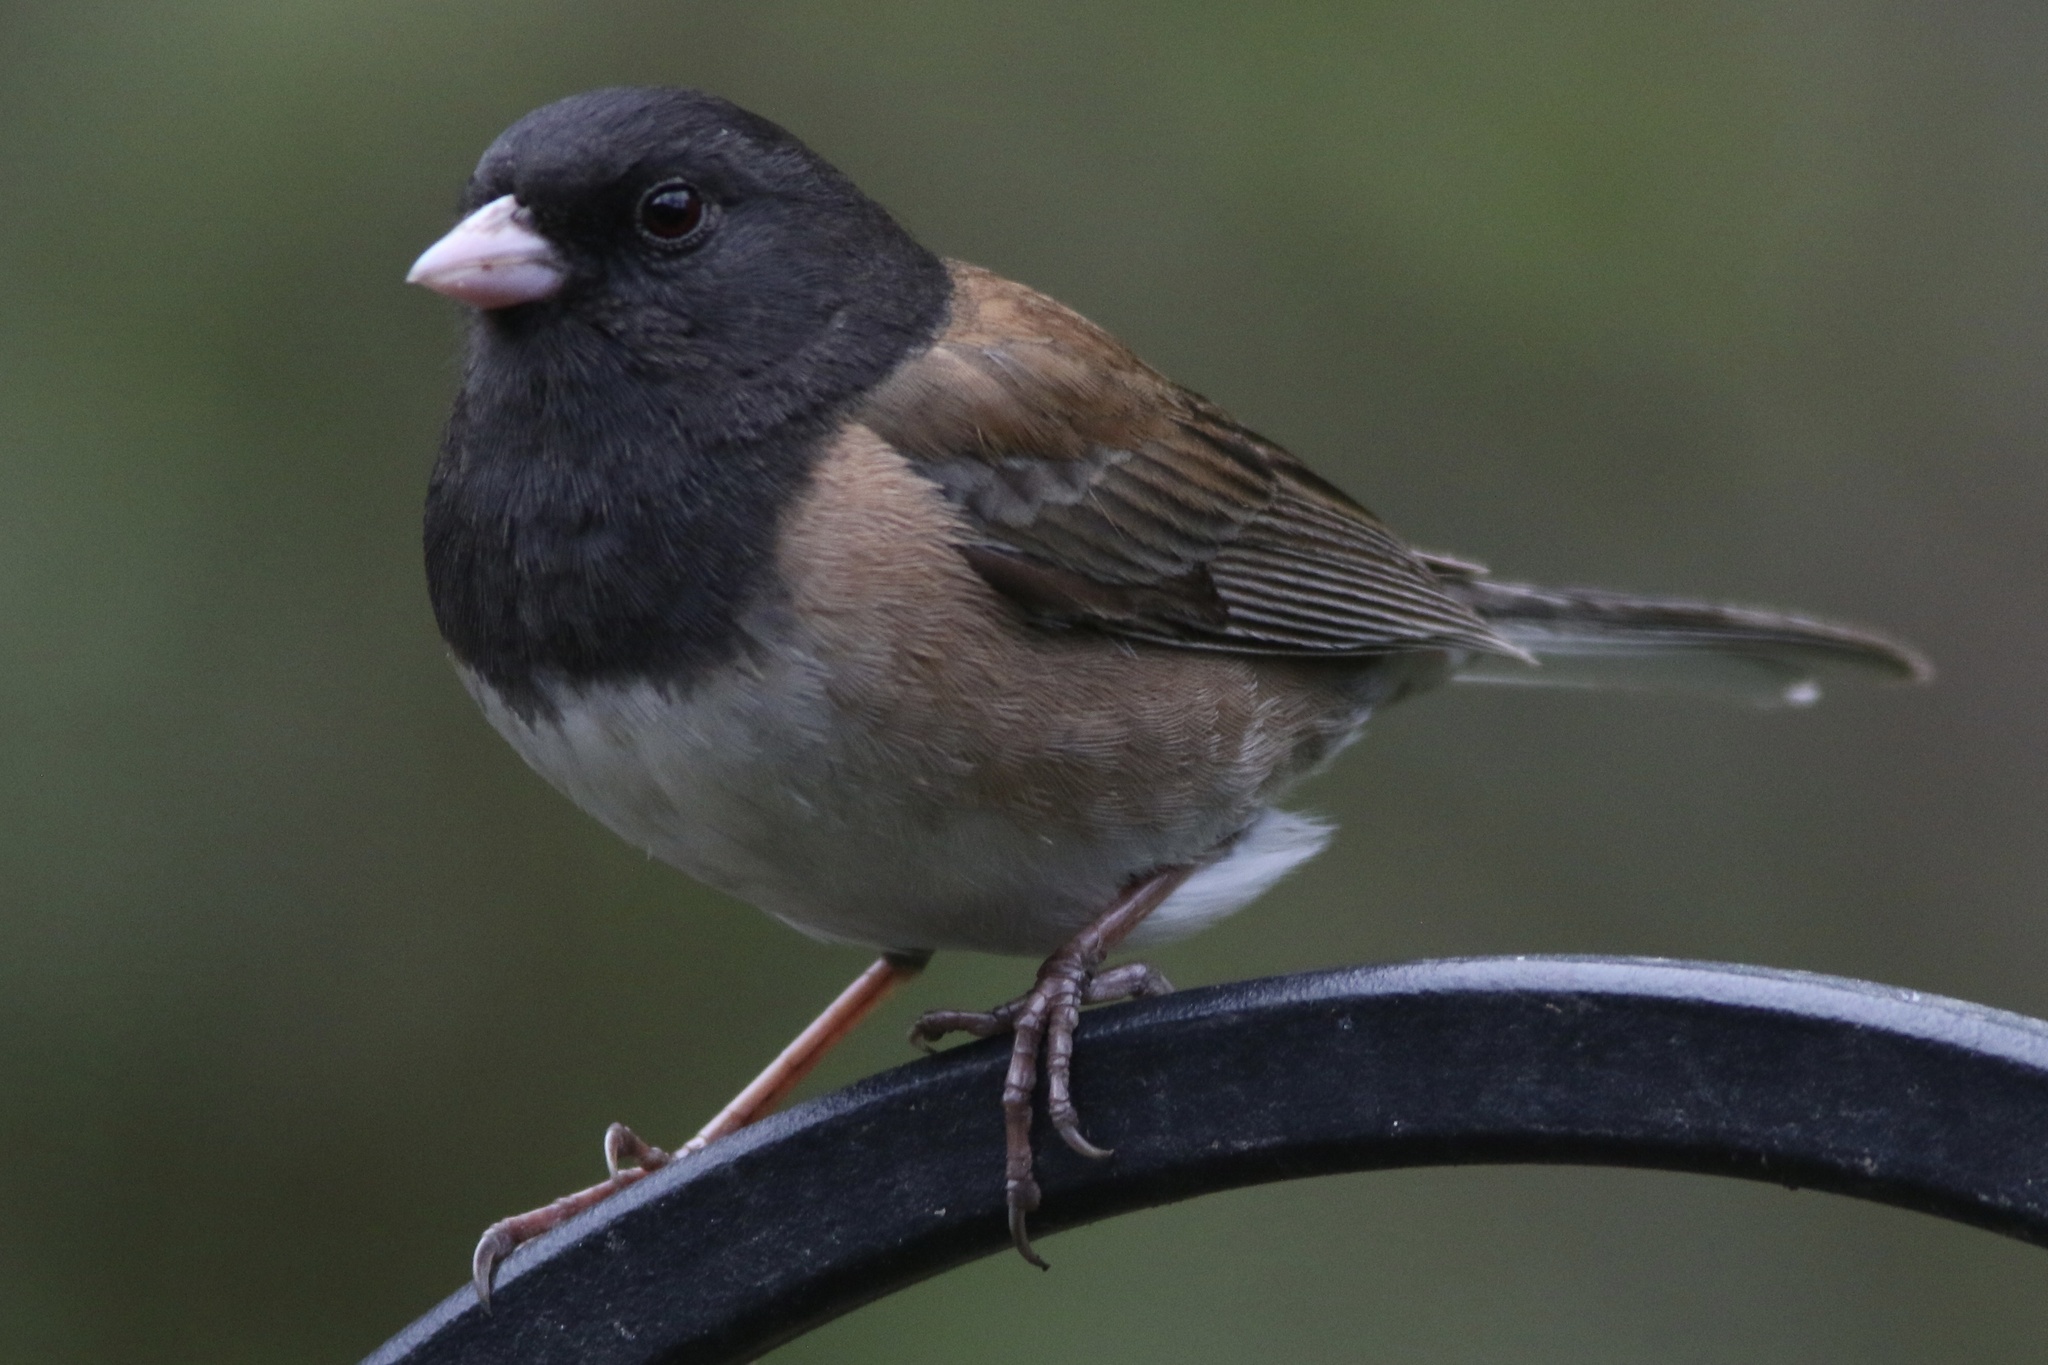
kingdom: Animalia
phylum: Chordata
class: Aves
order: Passeriformes
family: Passerellidae
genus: Junco
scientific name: Junco hyemalis
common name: Dark-eyed junco
